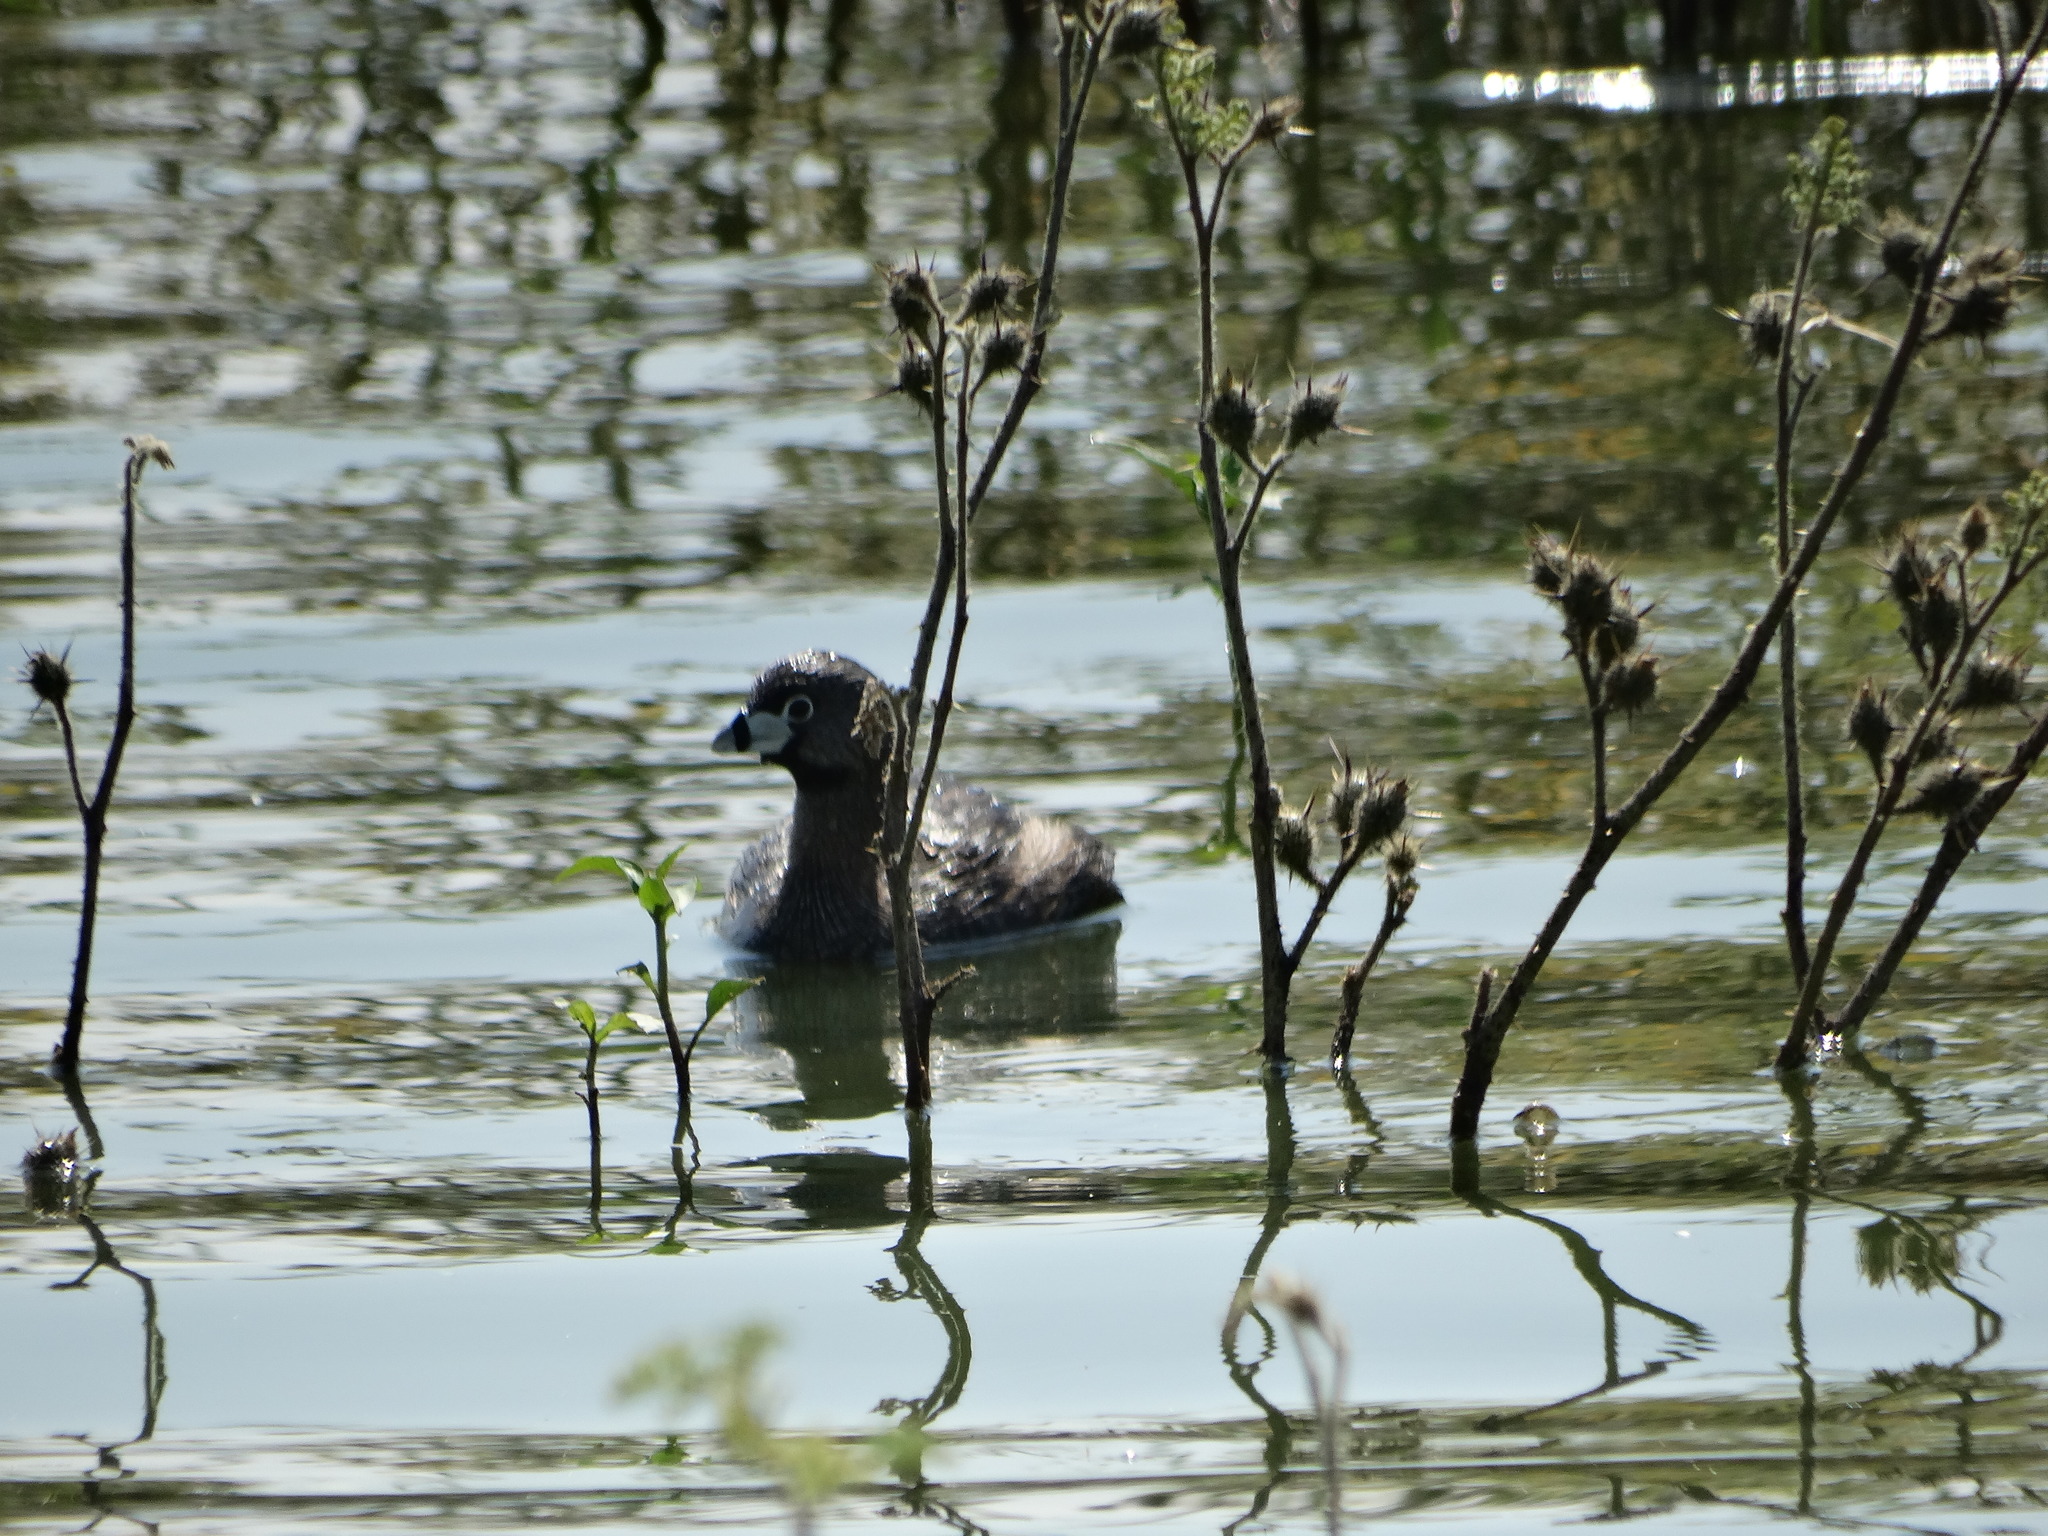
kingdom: Animalia
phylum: Chordata
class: Aves
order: Podicipediformes
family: Podicipedidae
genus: Podilymbus
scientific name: Podilymbus podiceps
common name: Pied-billed grebe
